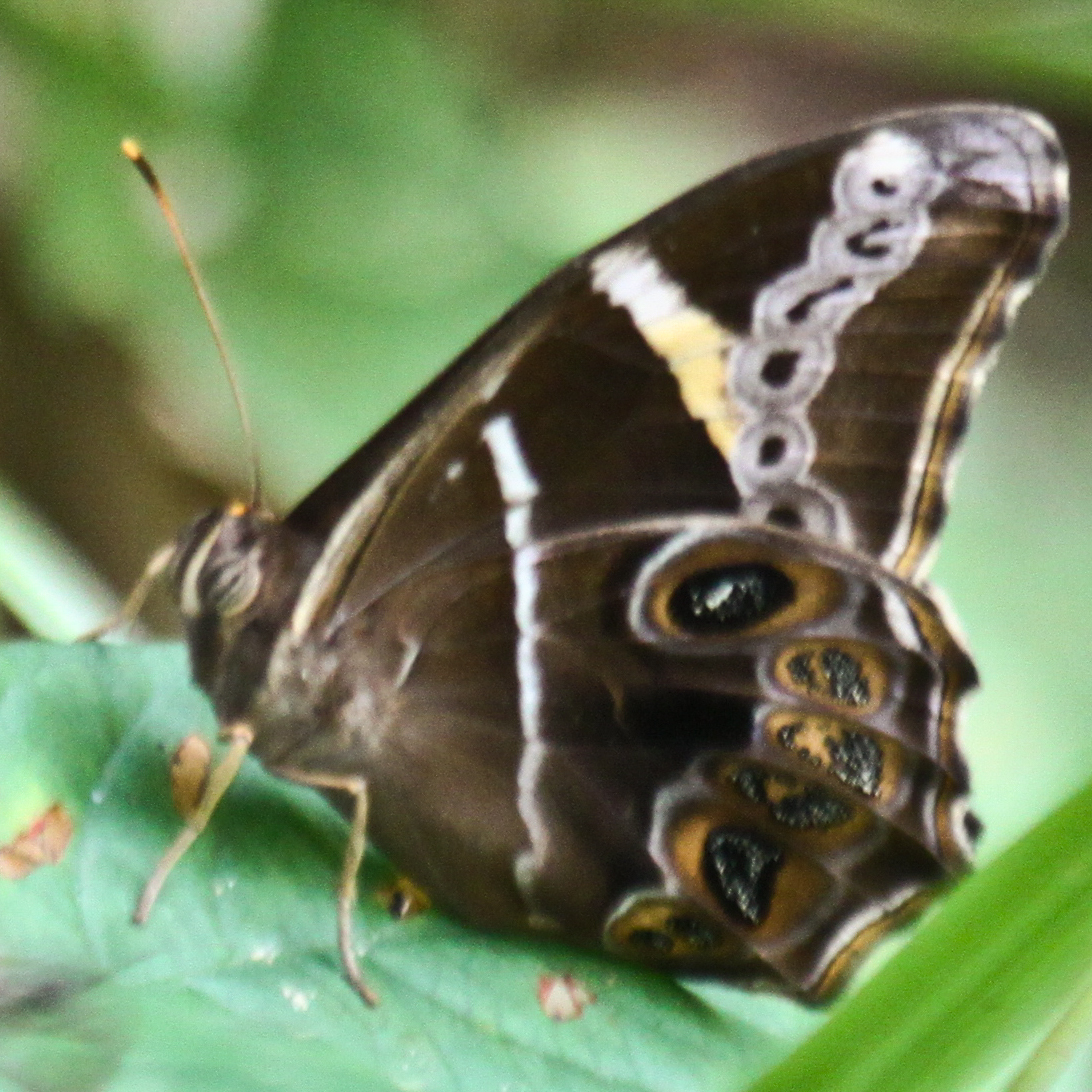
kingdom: Animalia
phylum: Arthropoda
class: Insecta
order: Lepidoptera
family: Nymphalidae
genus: Lethe
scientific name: Lethe europa
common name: Bamboo treebrown
